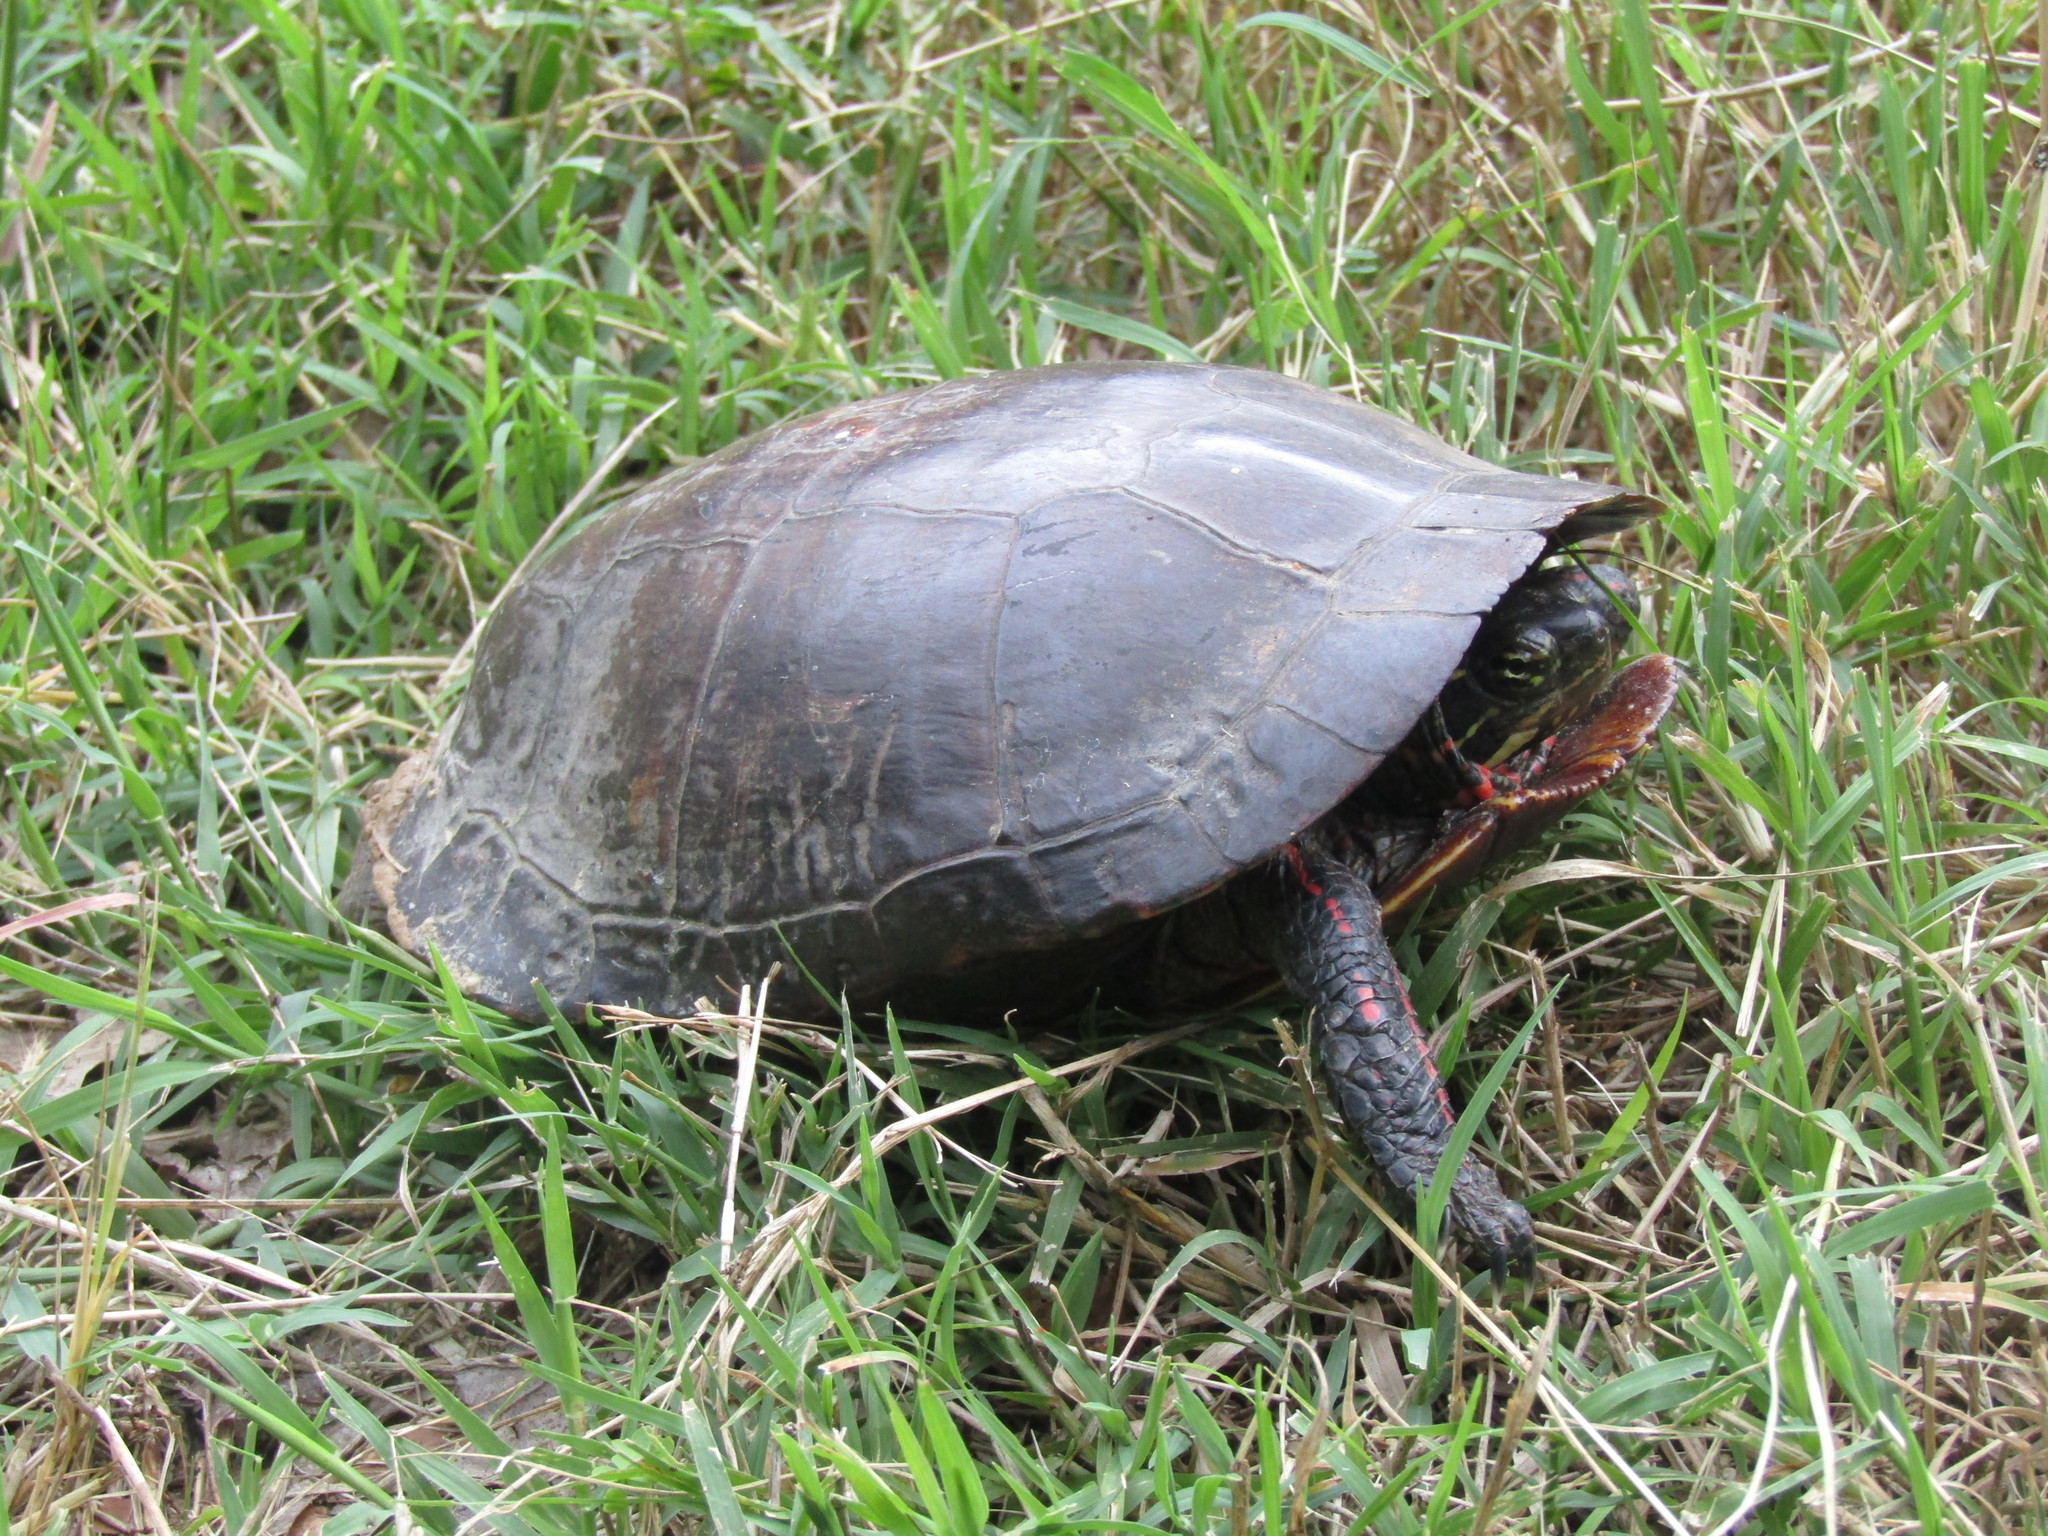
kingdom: Animalia
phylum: Chordata
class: Testudines
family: Emydidae
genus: Chrysemys
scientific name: Chrysemys picta
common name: Painted turtle
